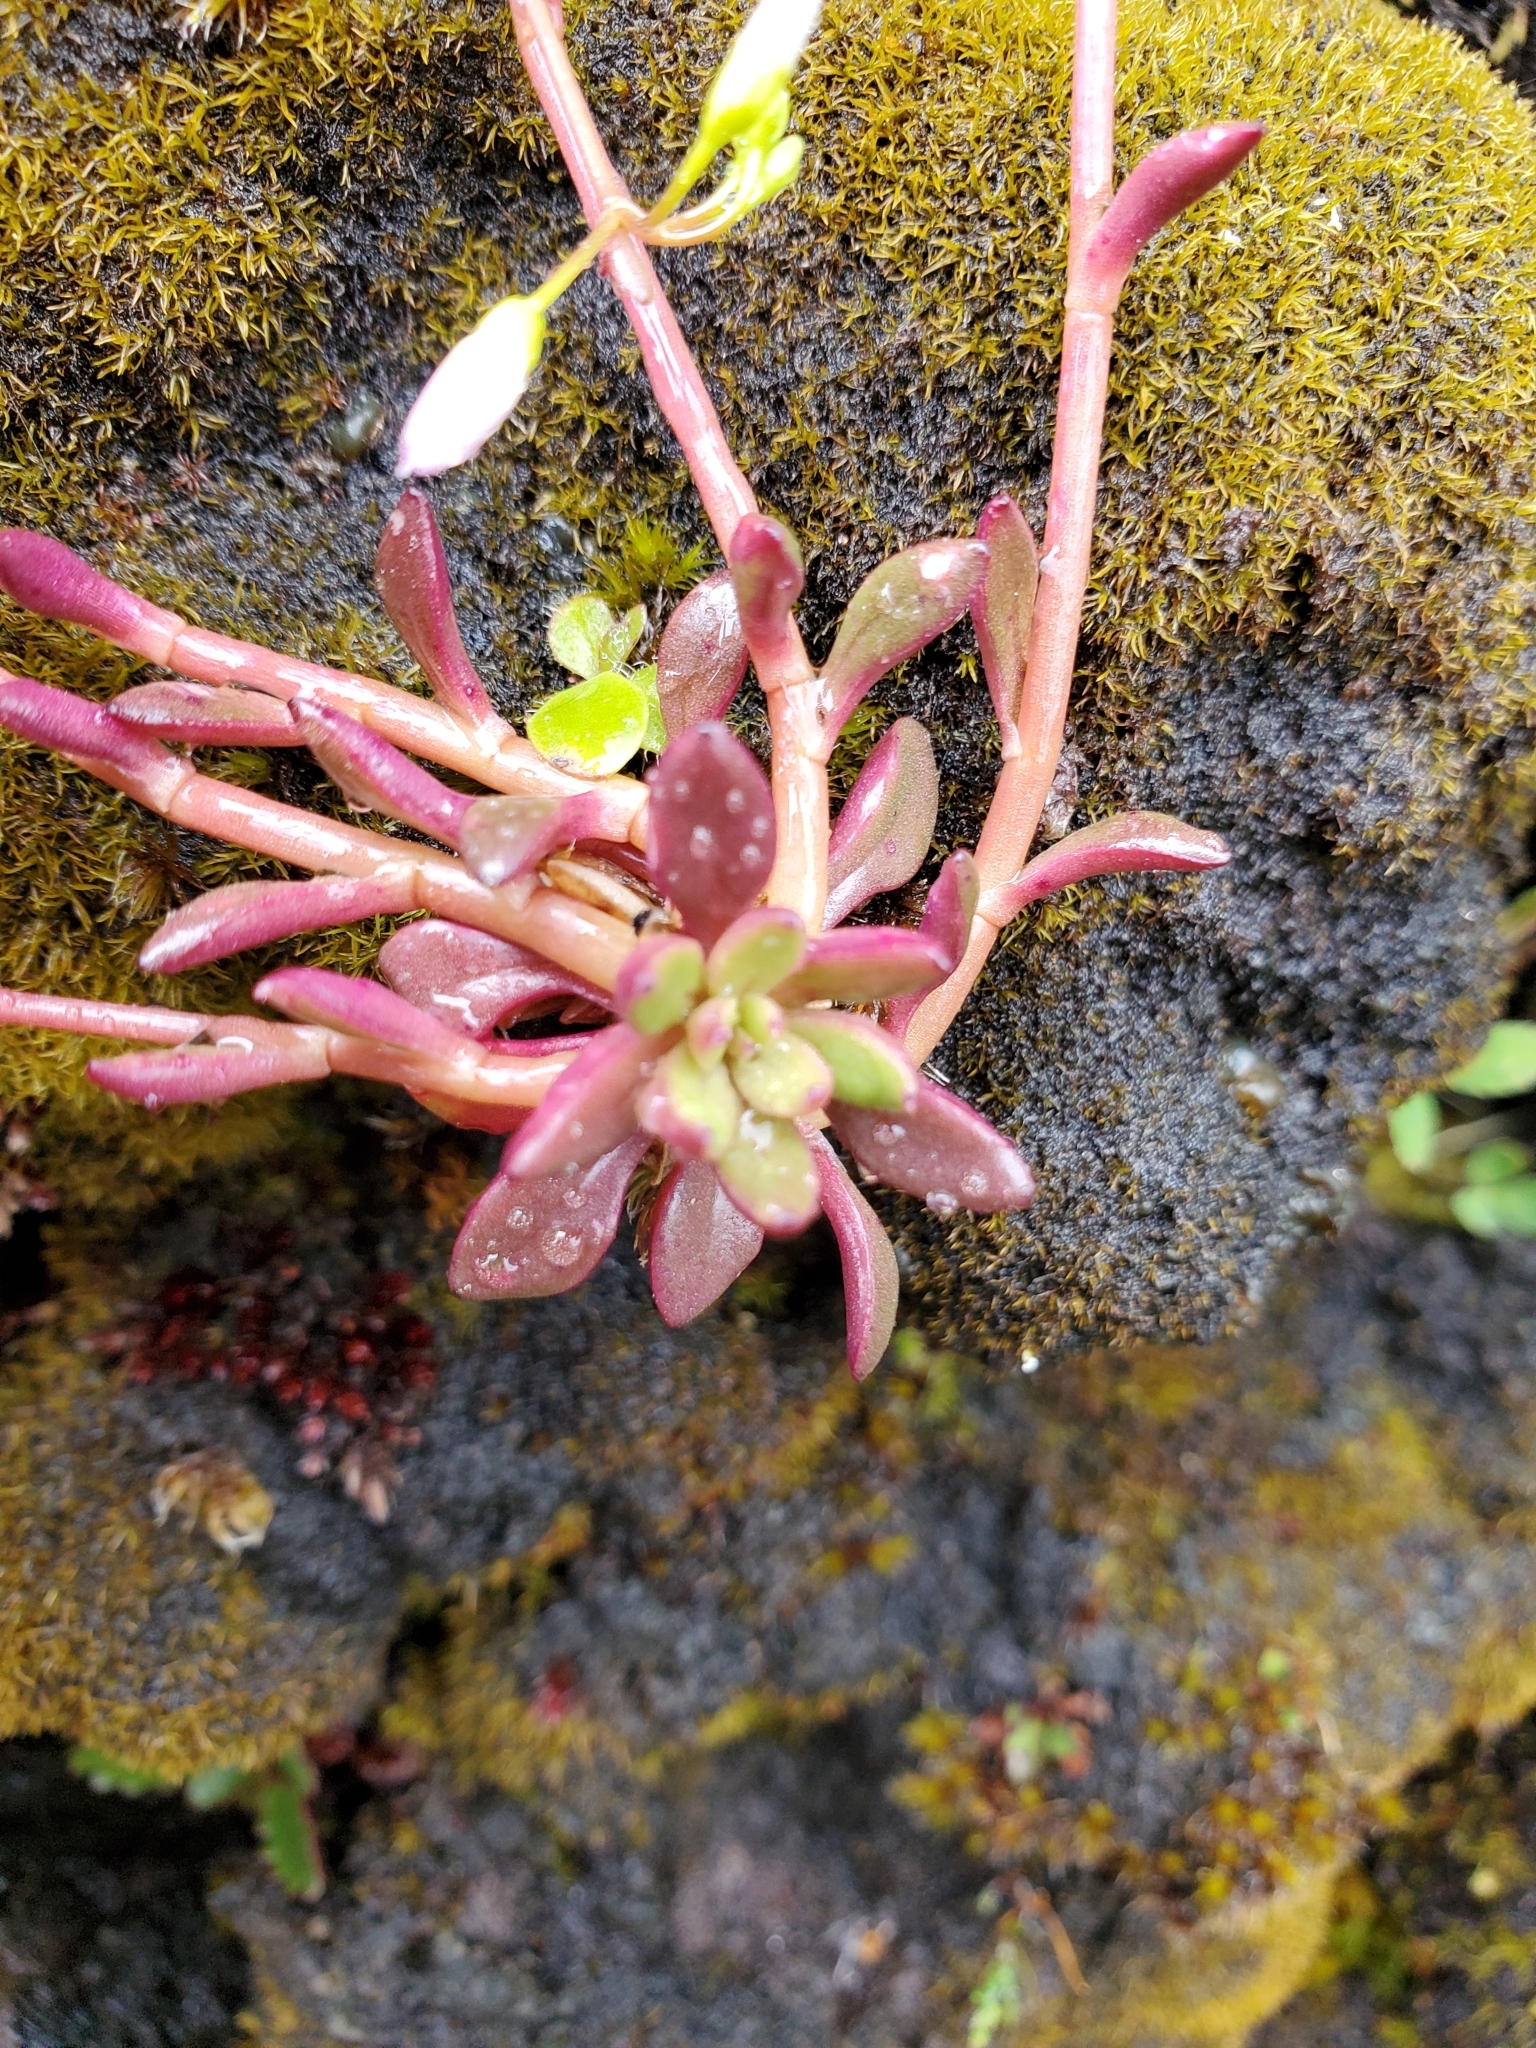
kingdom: Plantae
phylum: Tracheophyta
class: Magnoliopsida
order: Caryophyllales
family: Montiaceae
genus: Montia
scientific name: Montia parvifolia
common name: Small-leaved blinks
